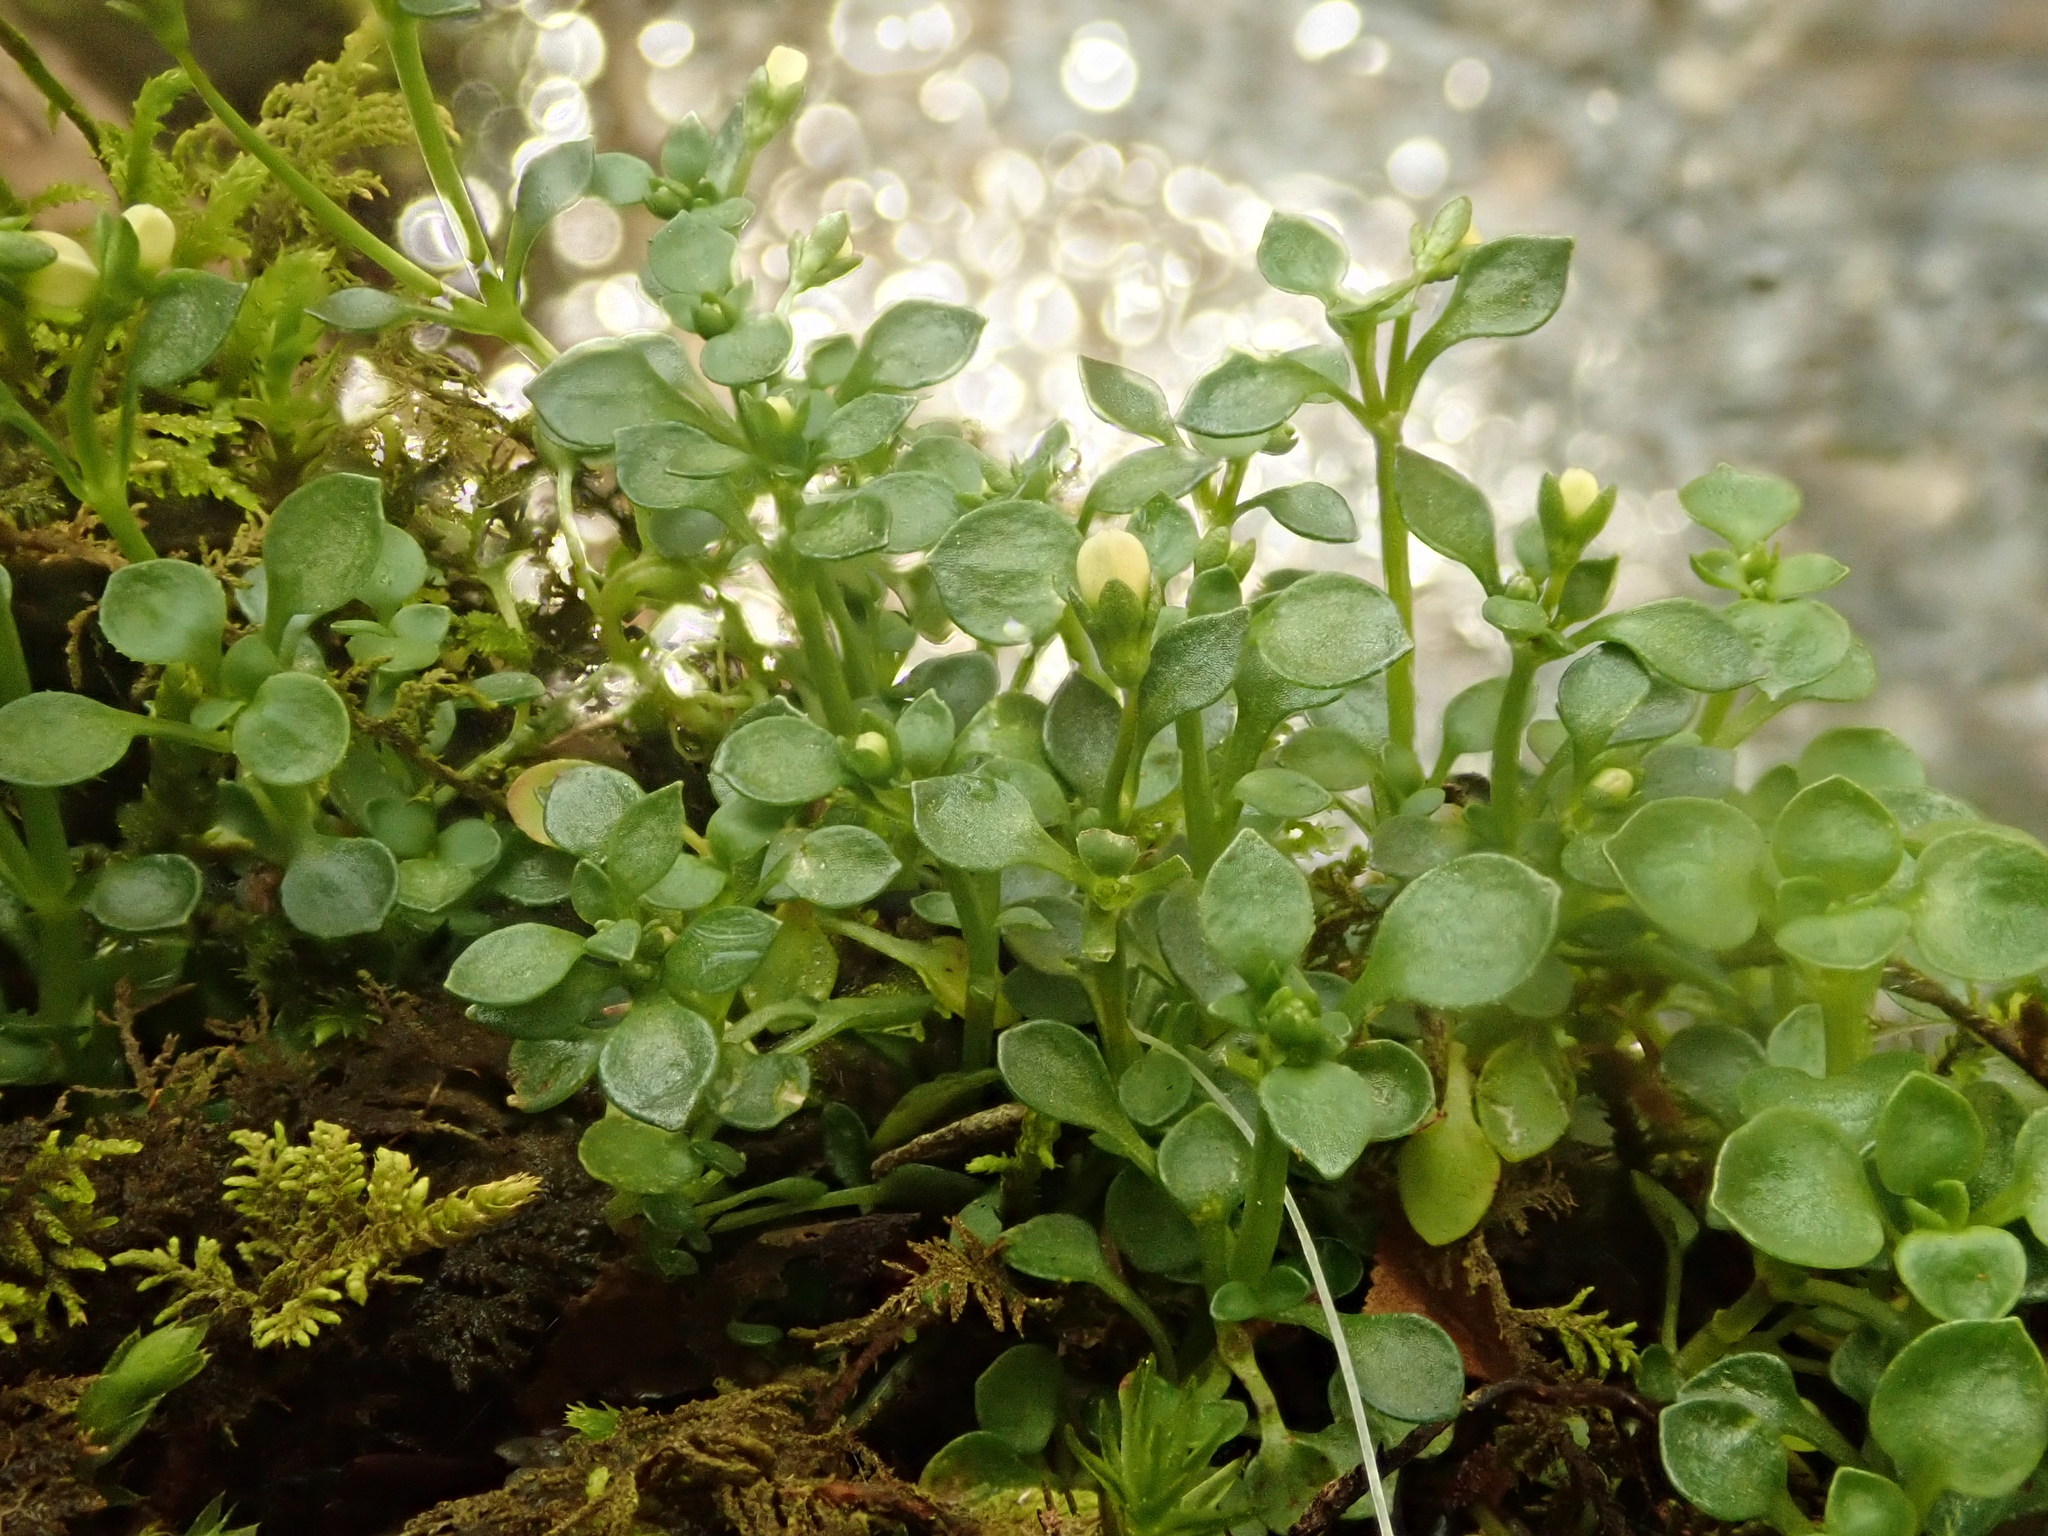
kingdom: Plantae
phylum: Tracheophyta
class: Magnoliopsida
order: Gentianales
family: Rubiaceae
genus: Houstonia
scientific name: Houstonia serpyllifolia
